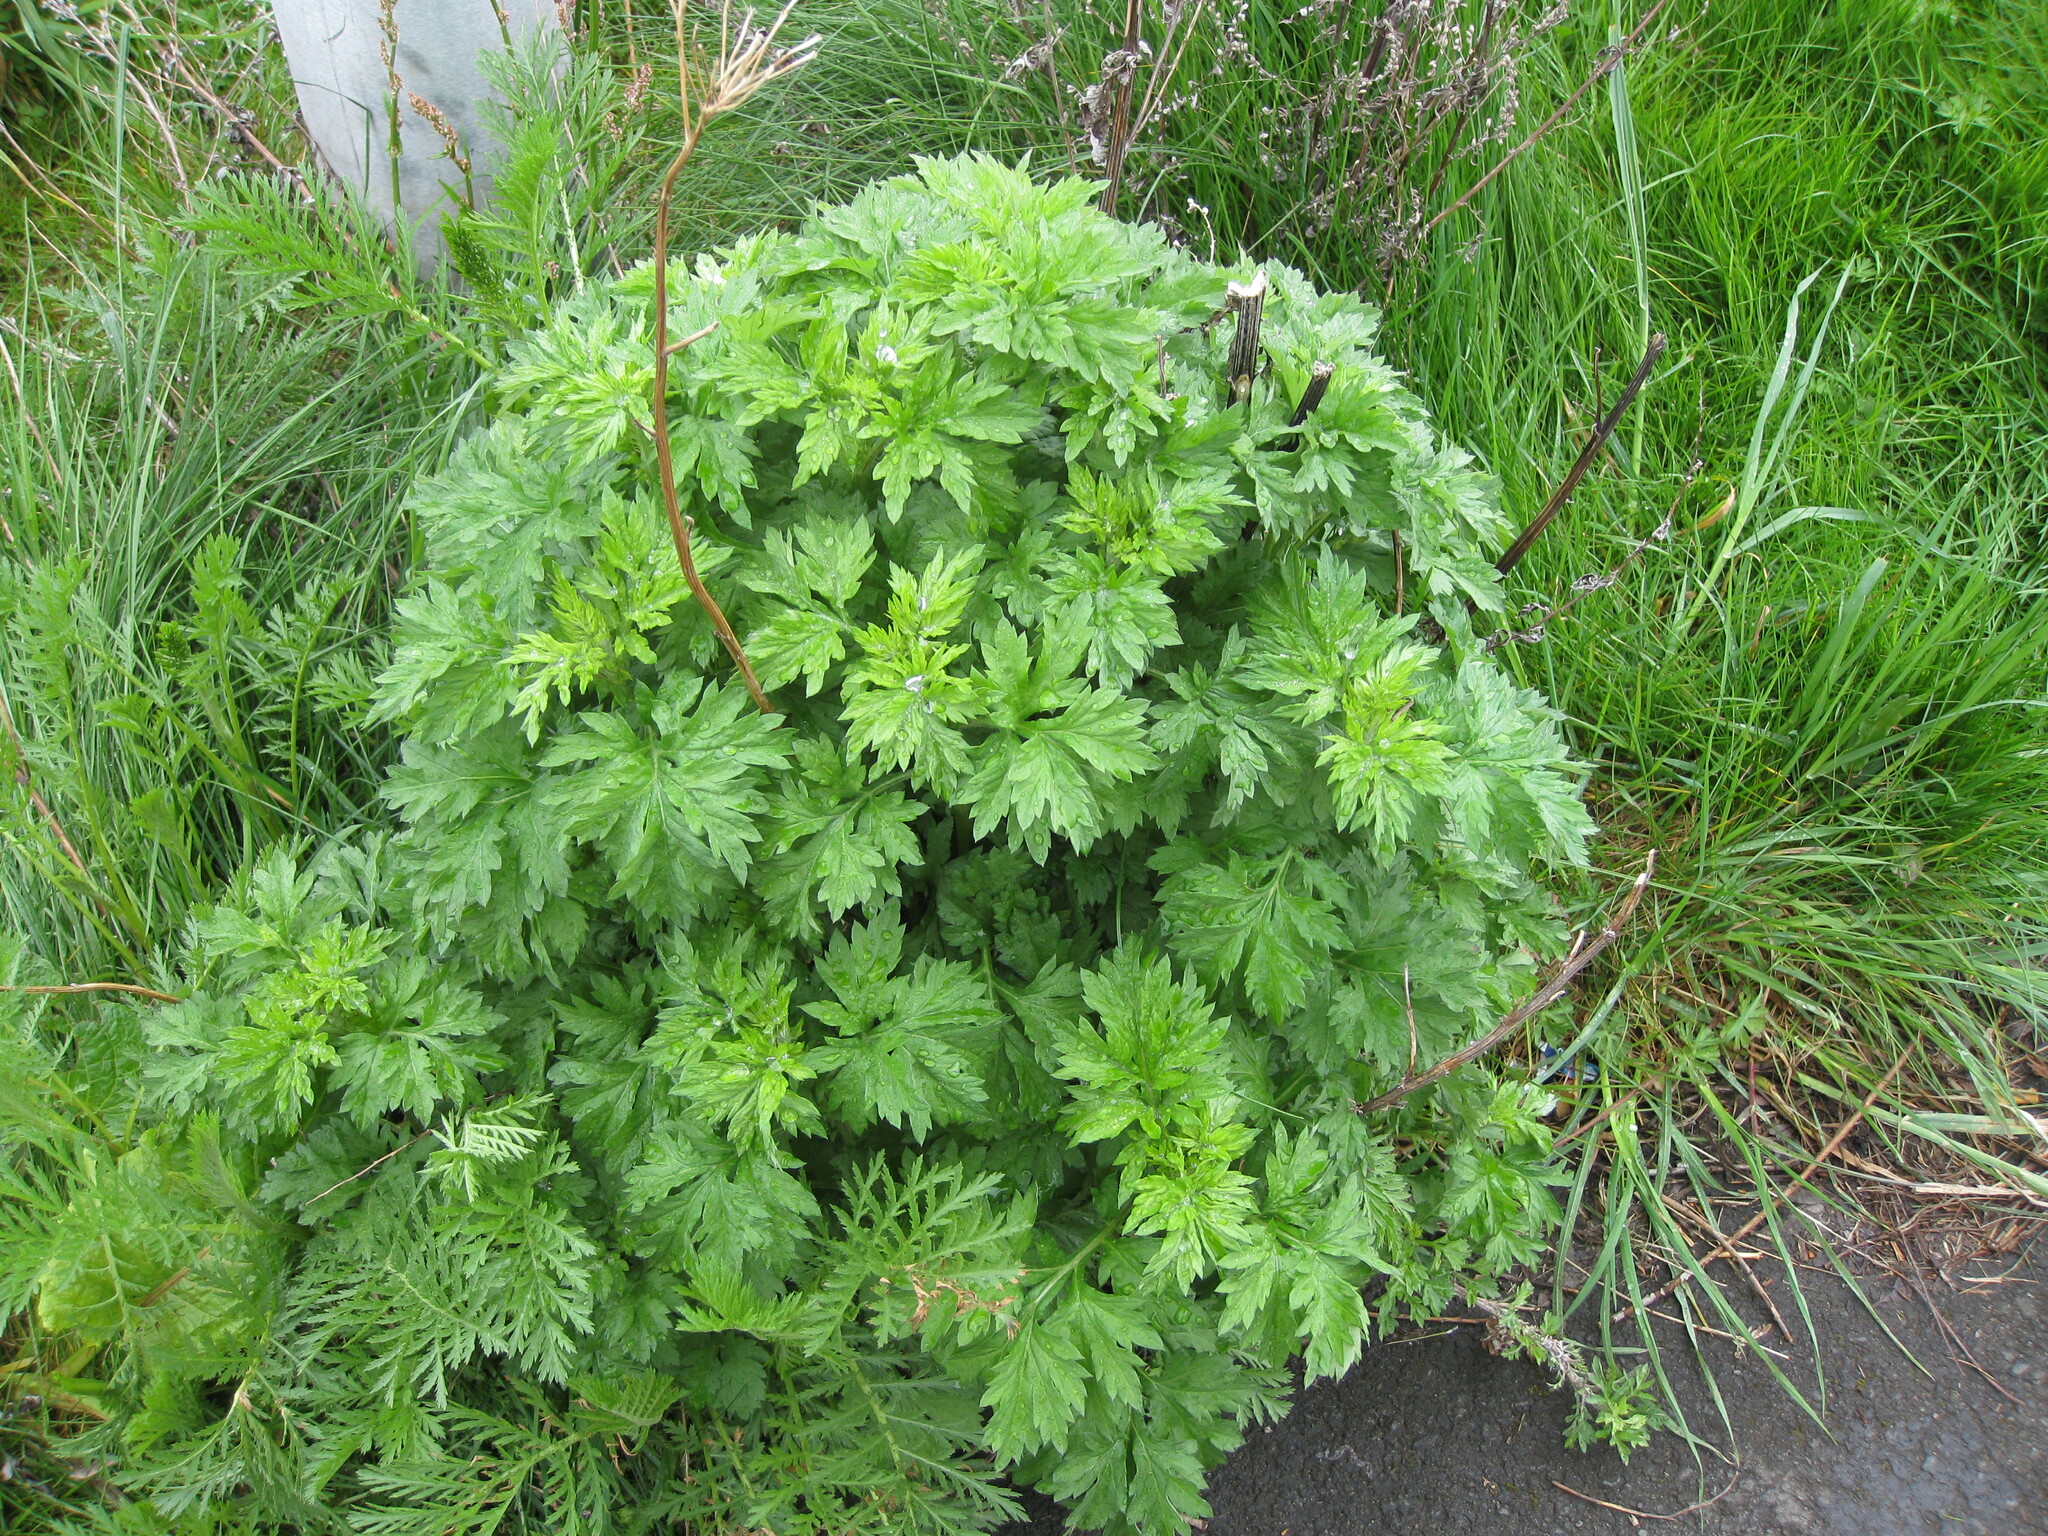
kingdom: Plantae
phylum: Tracheophyta
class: Magnoliopsida
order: Asterales
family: Asteraceae
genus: Artemisia
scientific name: Artemisia vulgaris
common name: Mugwort
